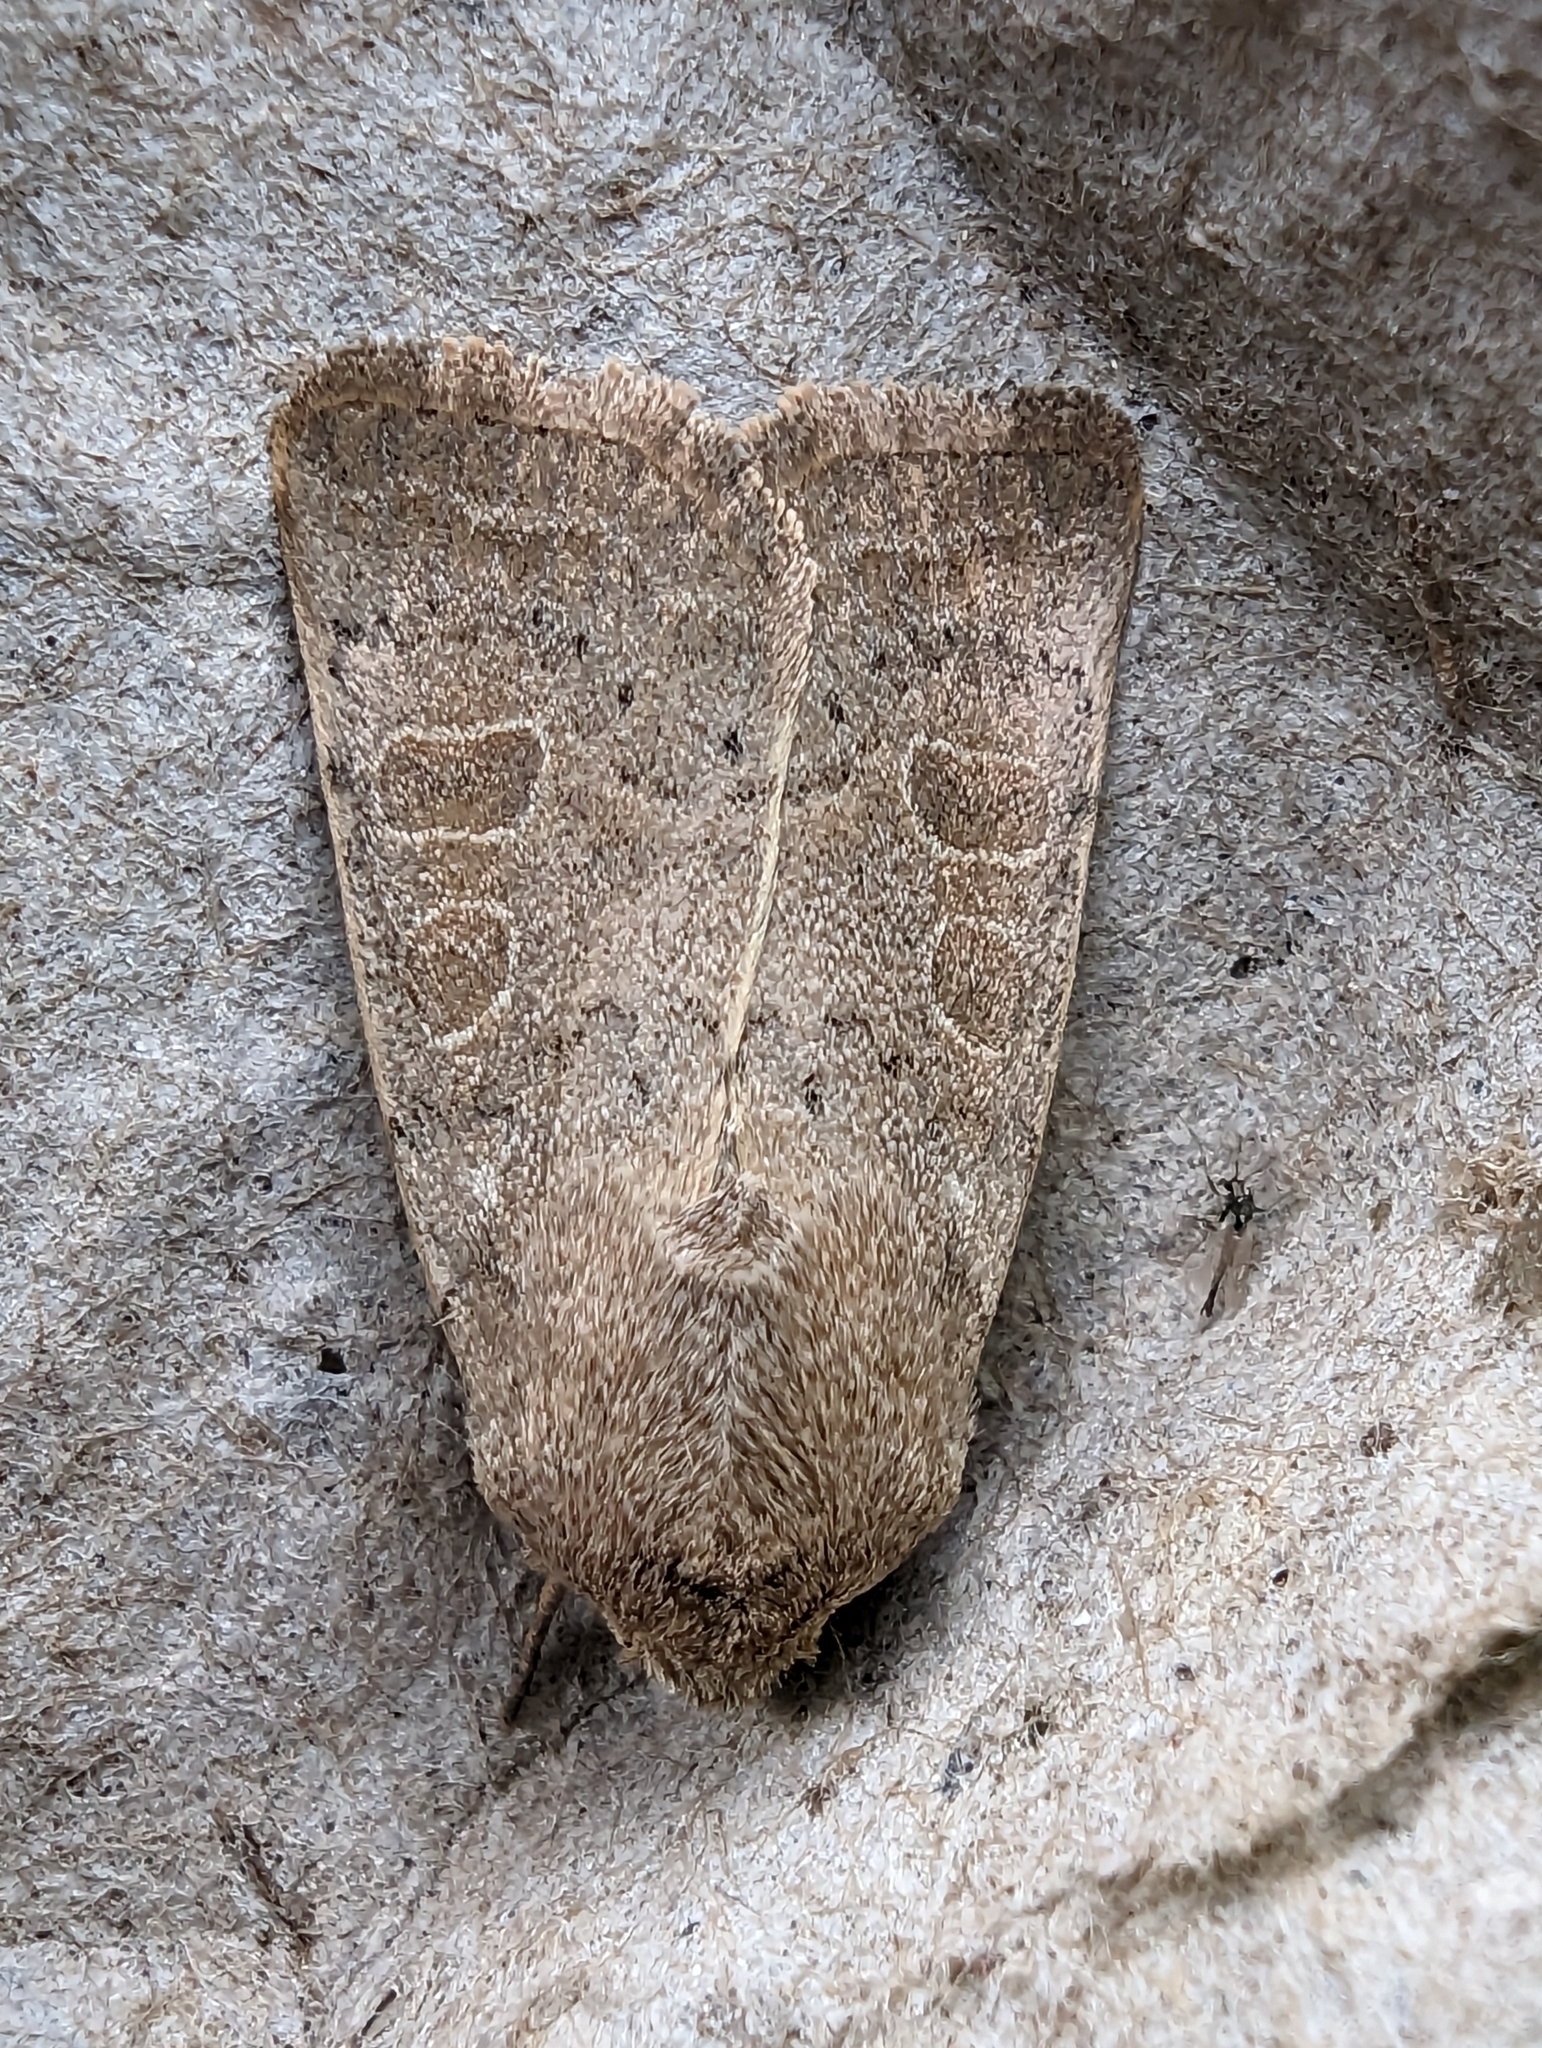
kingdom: Animalia
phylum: Arthropoda
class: Insecta
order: Lepidoptera
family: Noctuidae
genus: Hoplodrina
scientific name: Hoplodrina ambigua
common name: Vine's rustic
